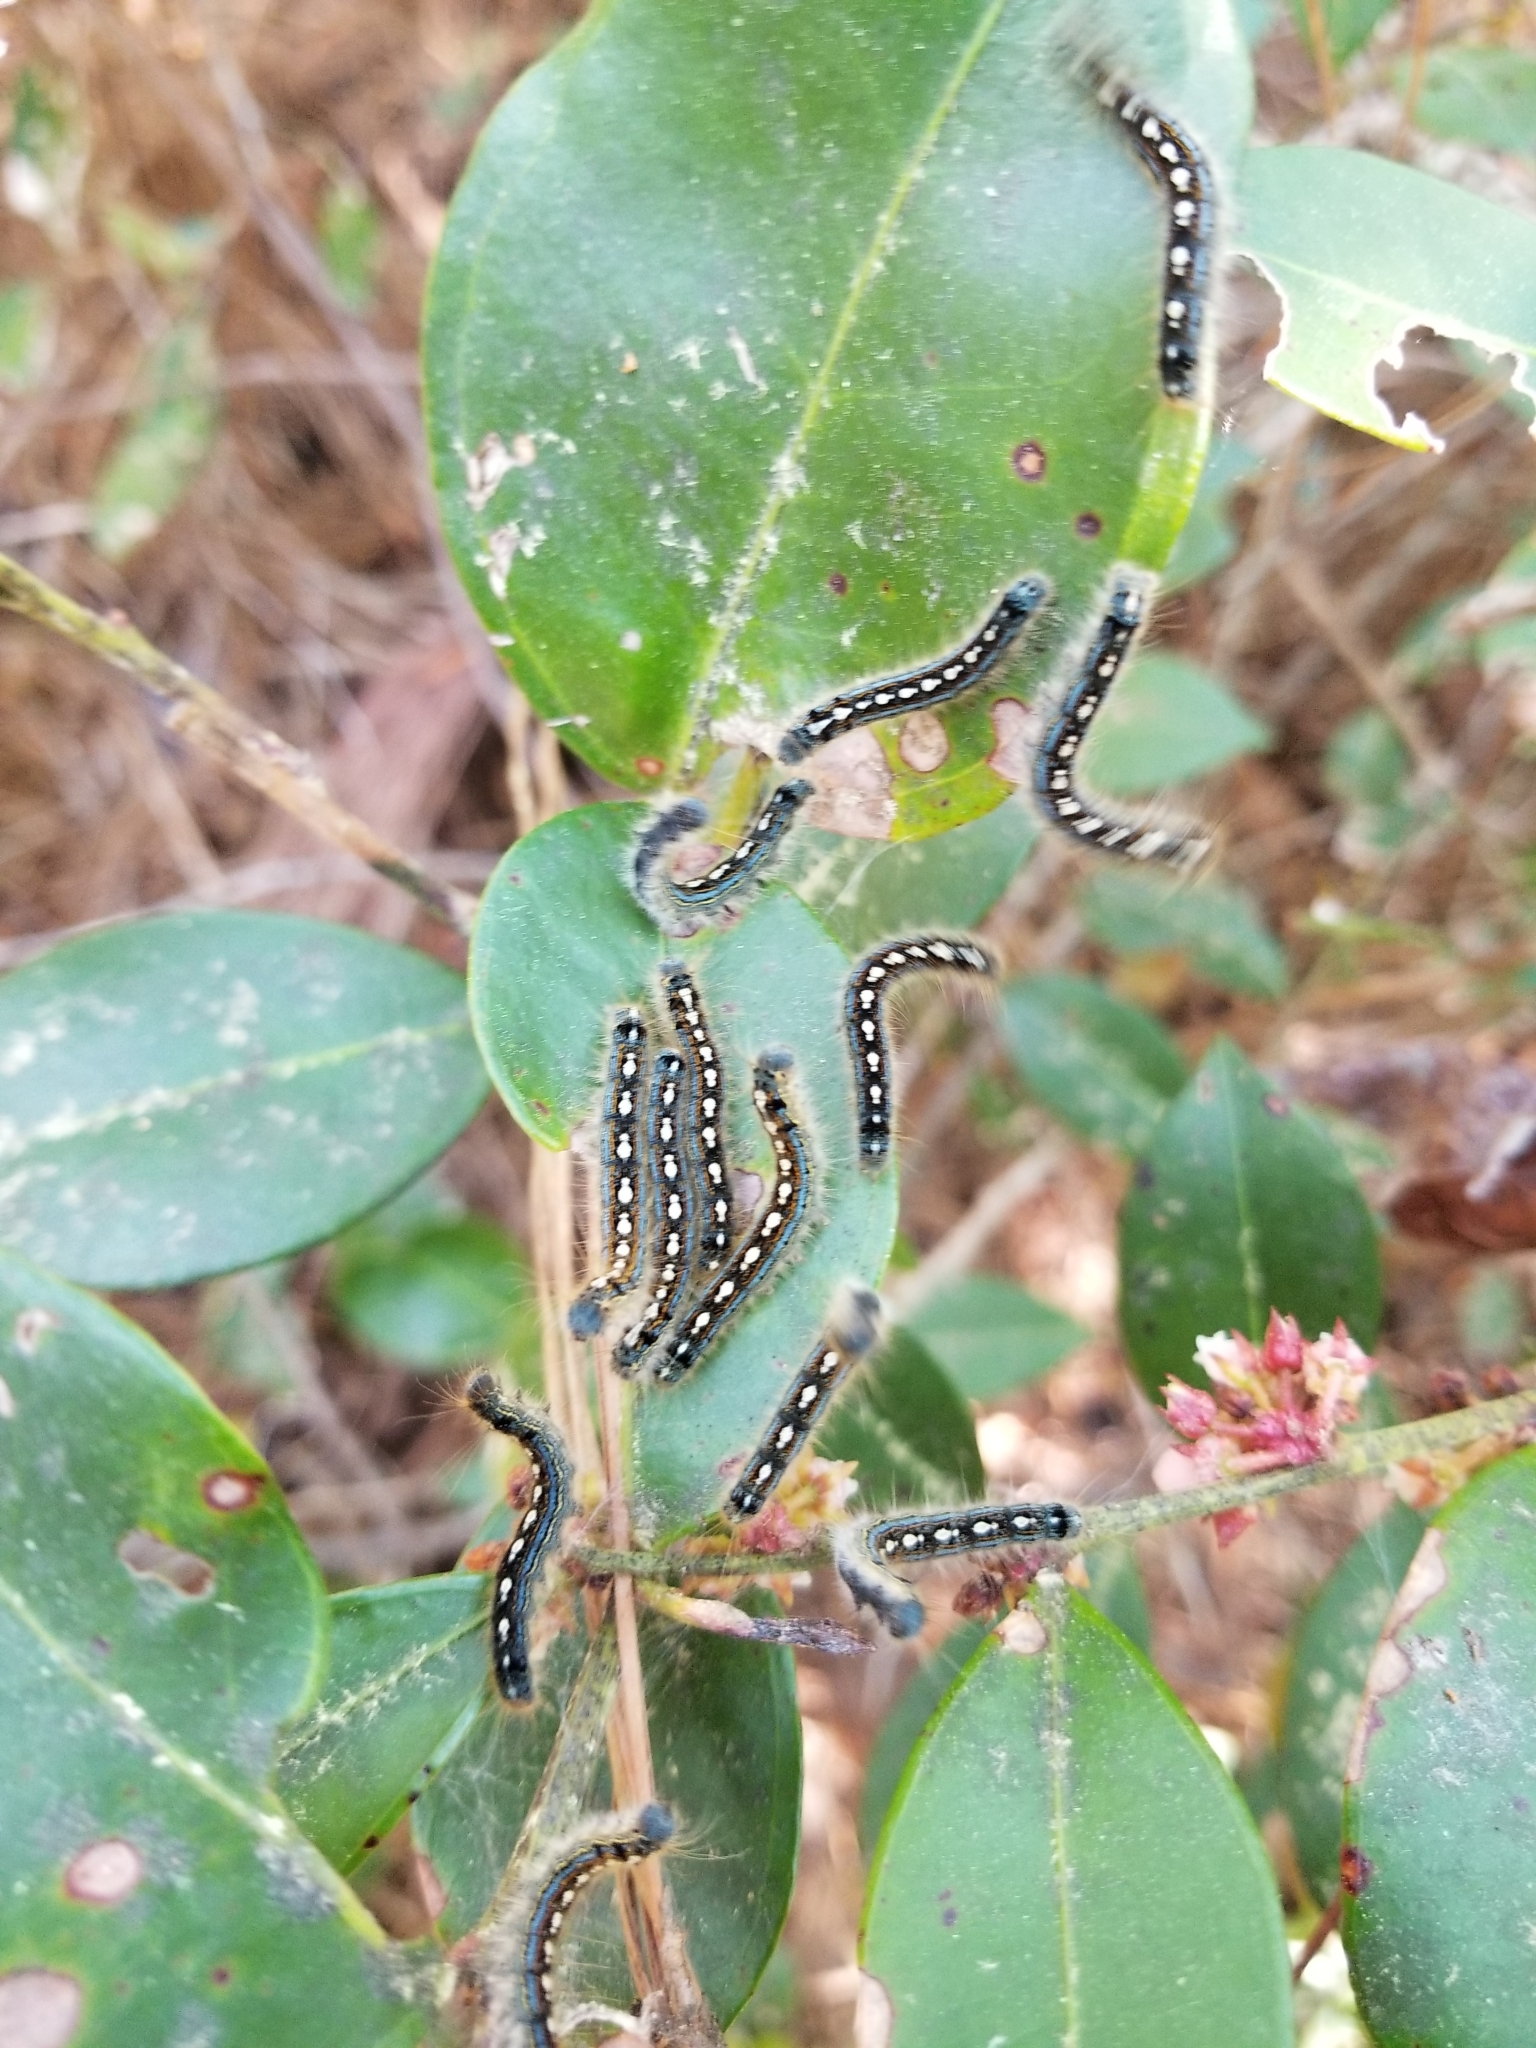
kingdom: Animalia
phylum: Arthropoda
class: Insecta
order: Lepidoptera
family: Lasiocampidae
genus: Malacosoma
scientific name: Malacosoma disstria
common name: Forest tent caterpillar
